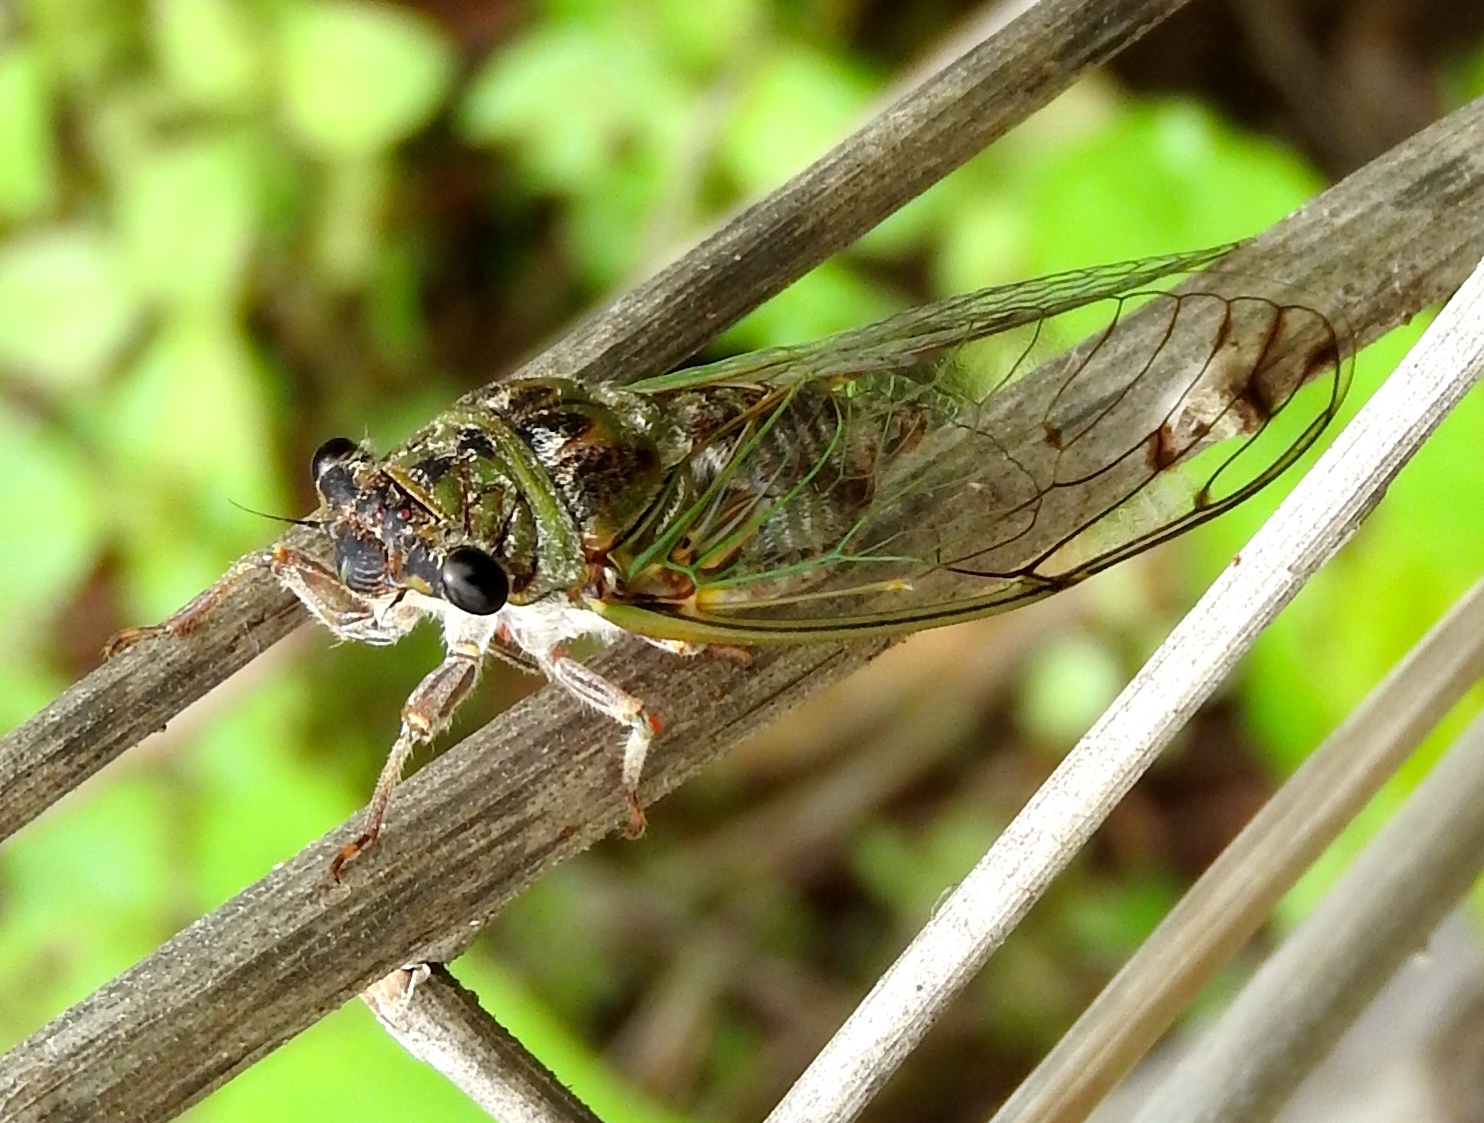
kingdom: Animalia
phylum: Arthropoda
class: Insecta
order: Hemiptera
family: Cicadidae
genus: Diceroprocta
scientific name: Diceroprocta tepicana
